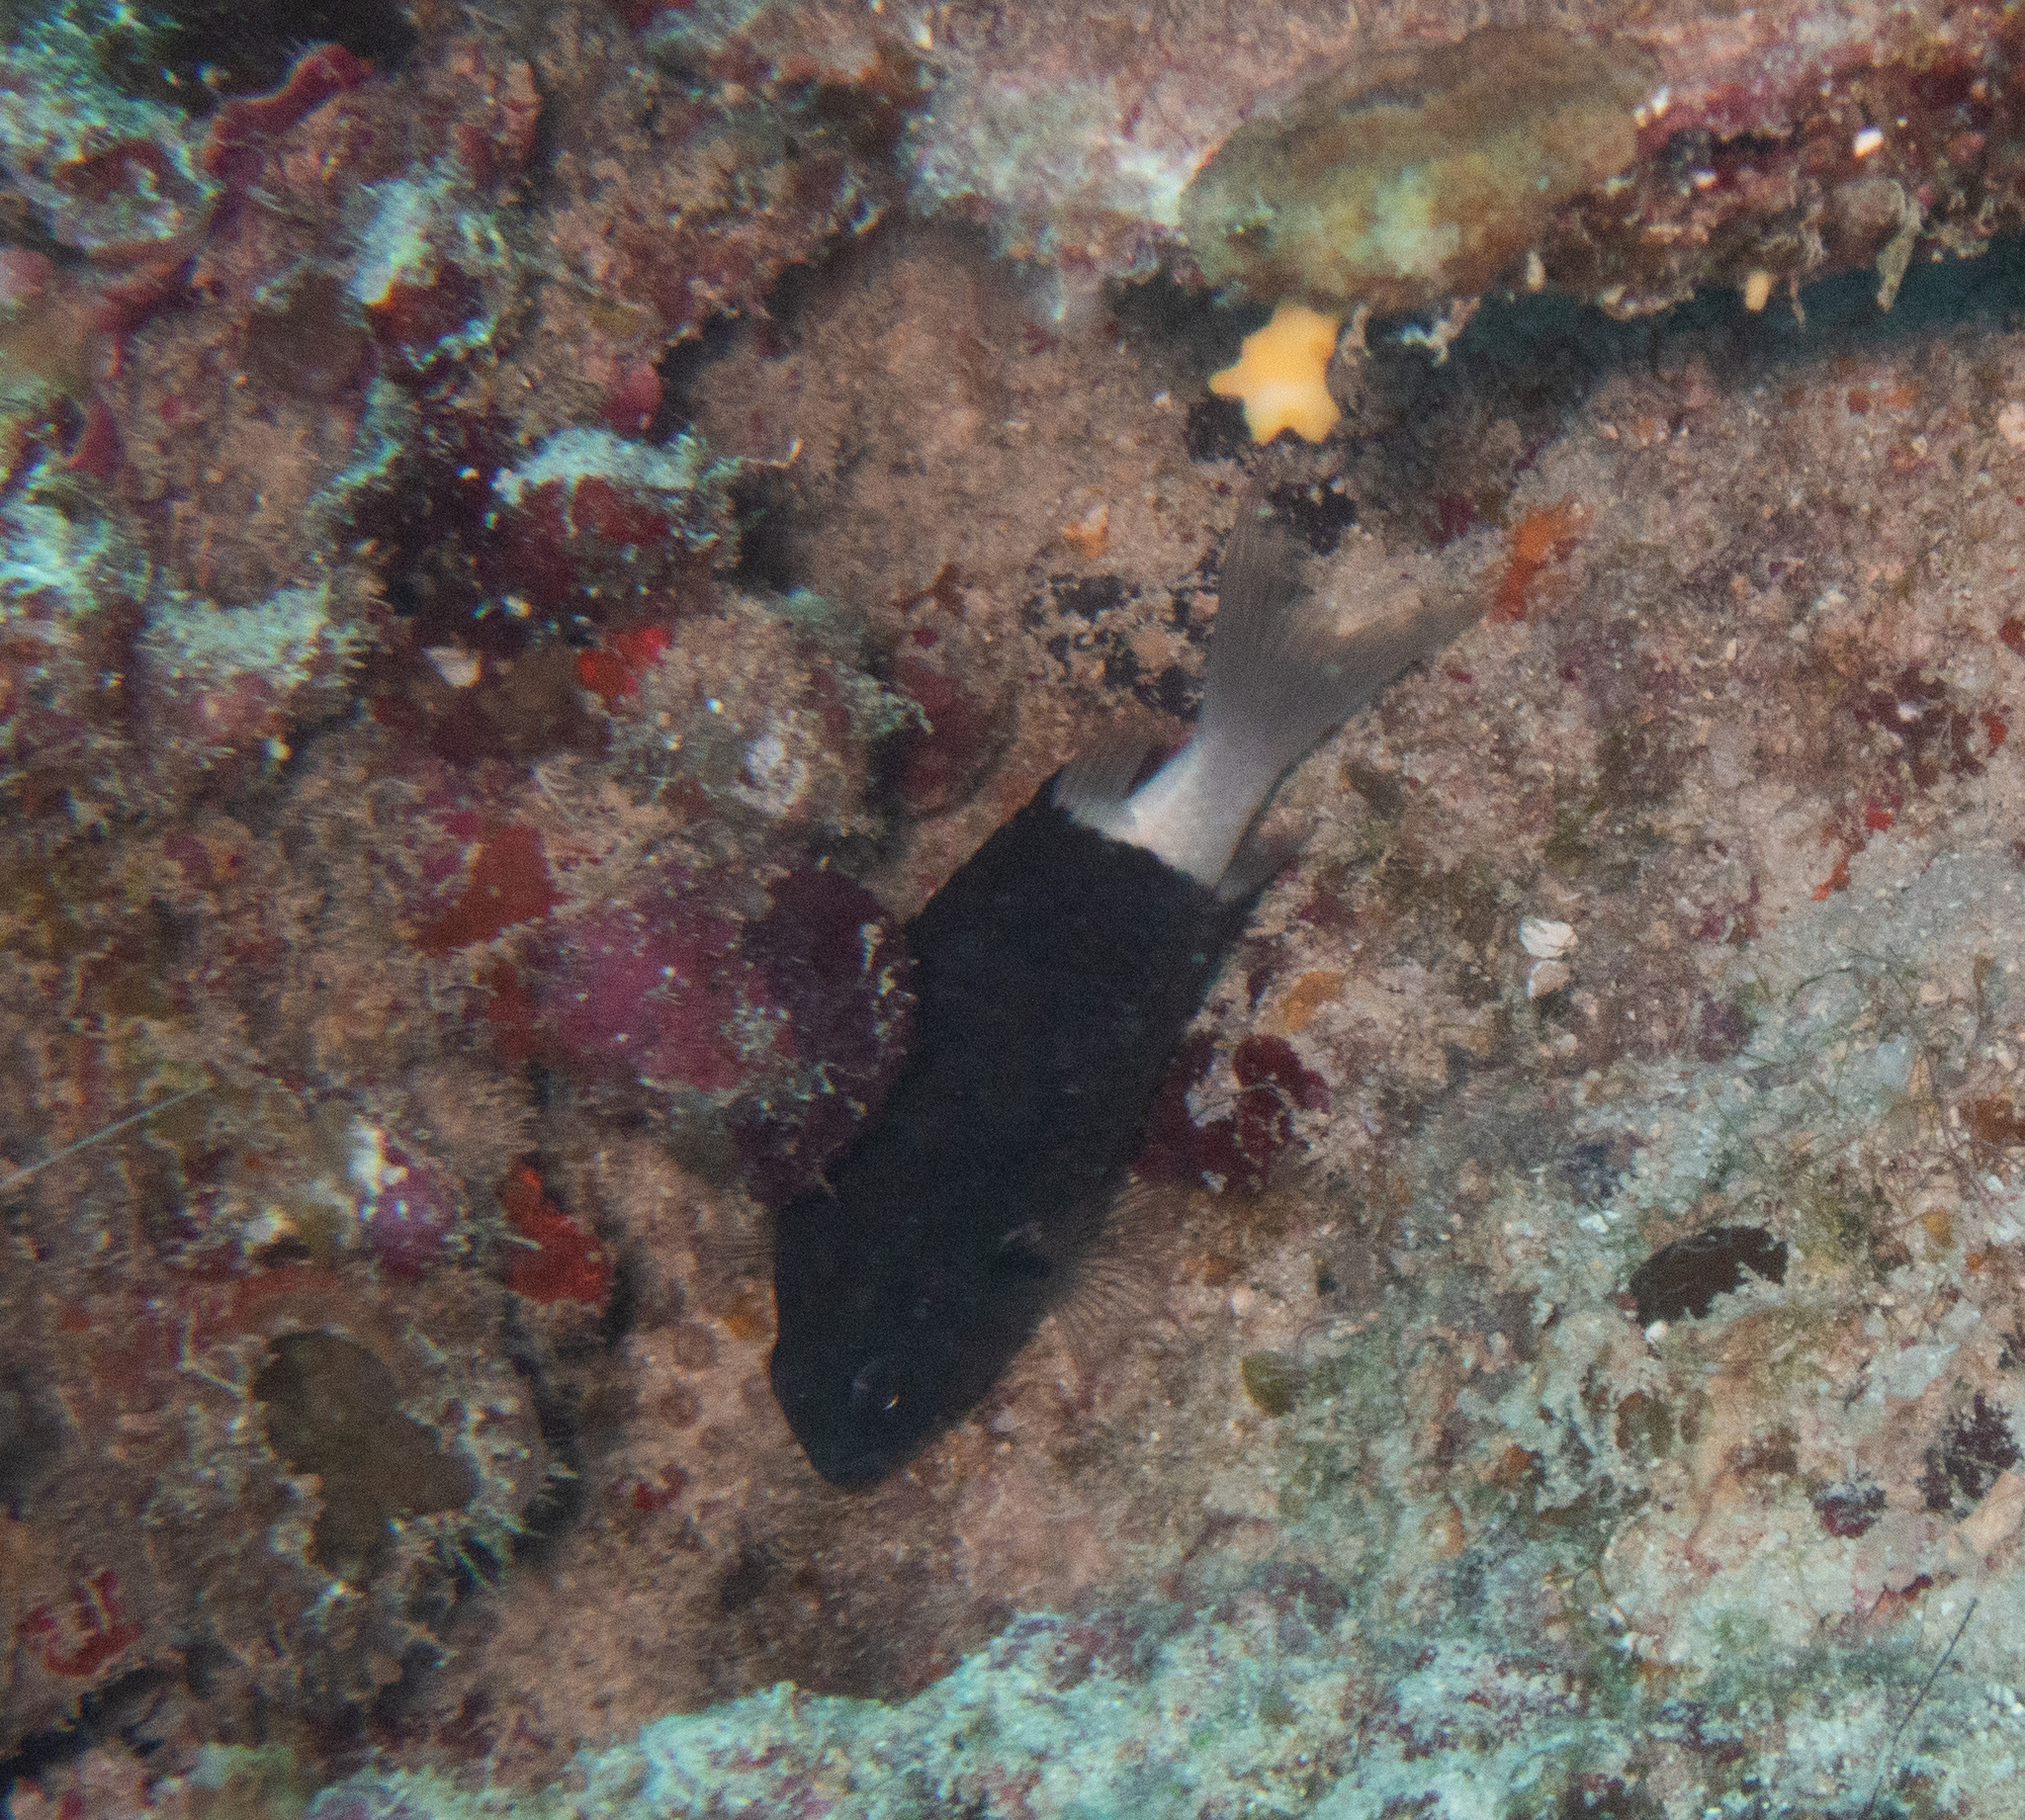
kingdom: Animalia
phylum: Chordata
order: Perciformes
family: Pomacentridae
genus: Pycnochromis
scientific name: Pycnochromis margaritifer
